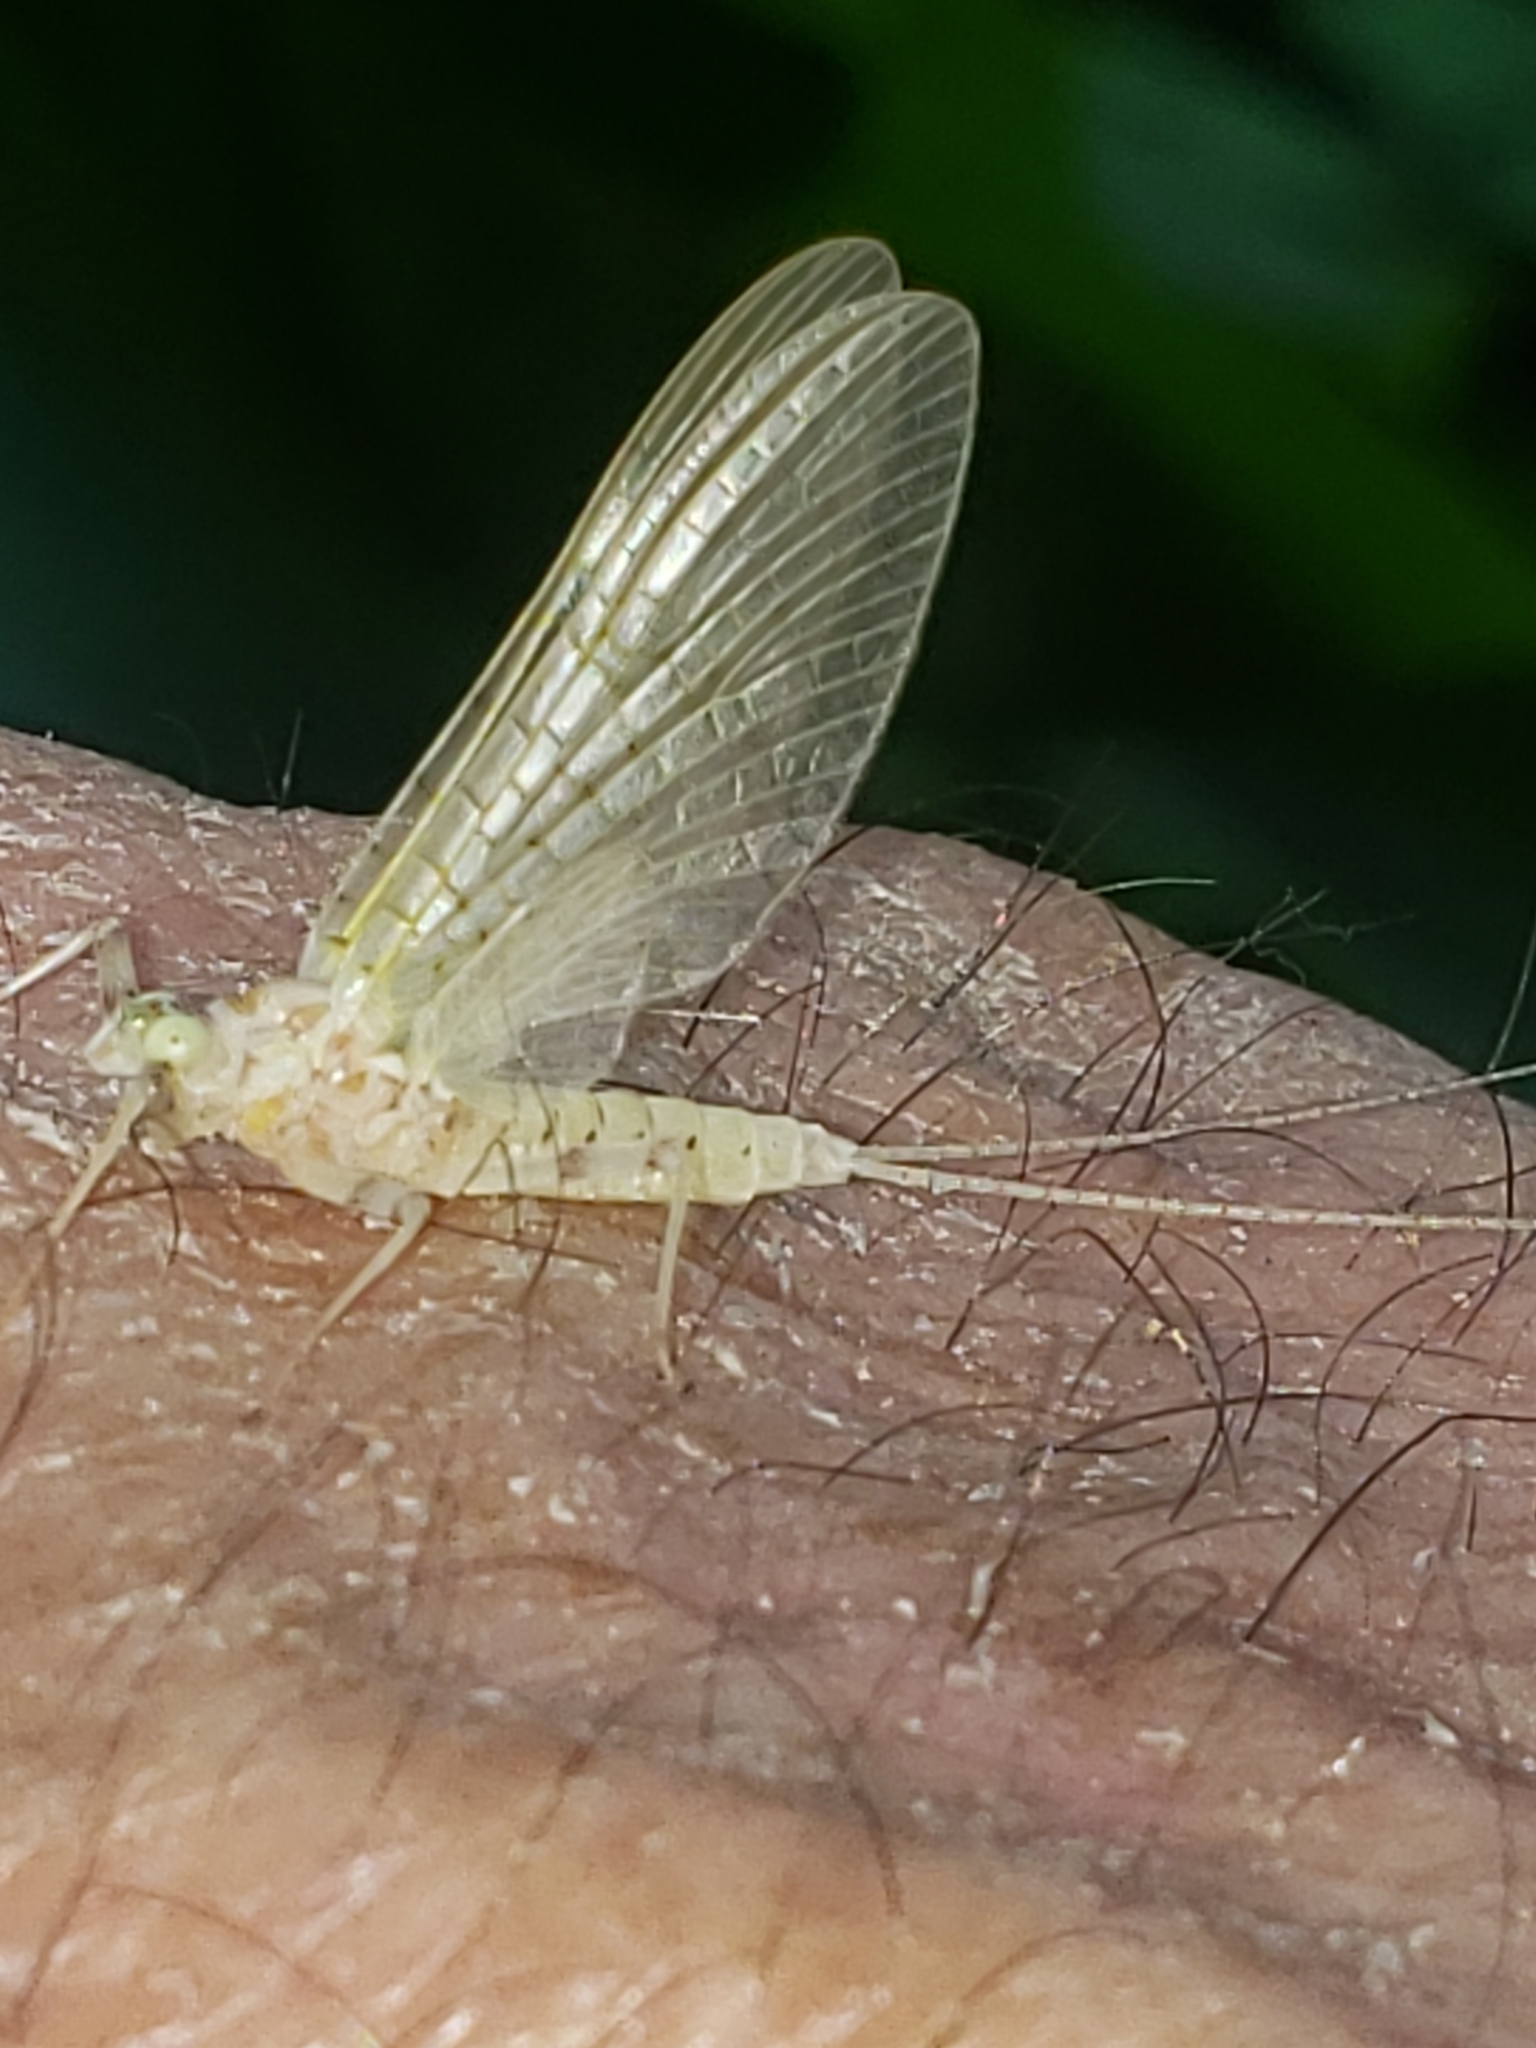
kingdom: Animalia
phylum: Arthropoda
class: Insecta
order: Ephemeroptera
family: Heptageniidae
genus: Maccaffertium
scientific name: Maccaffertium pulchellum
